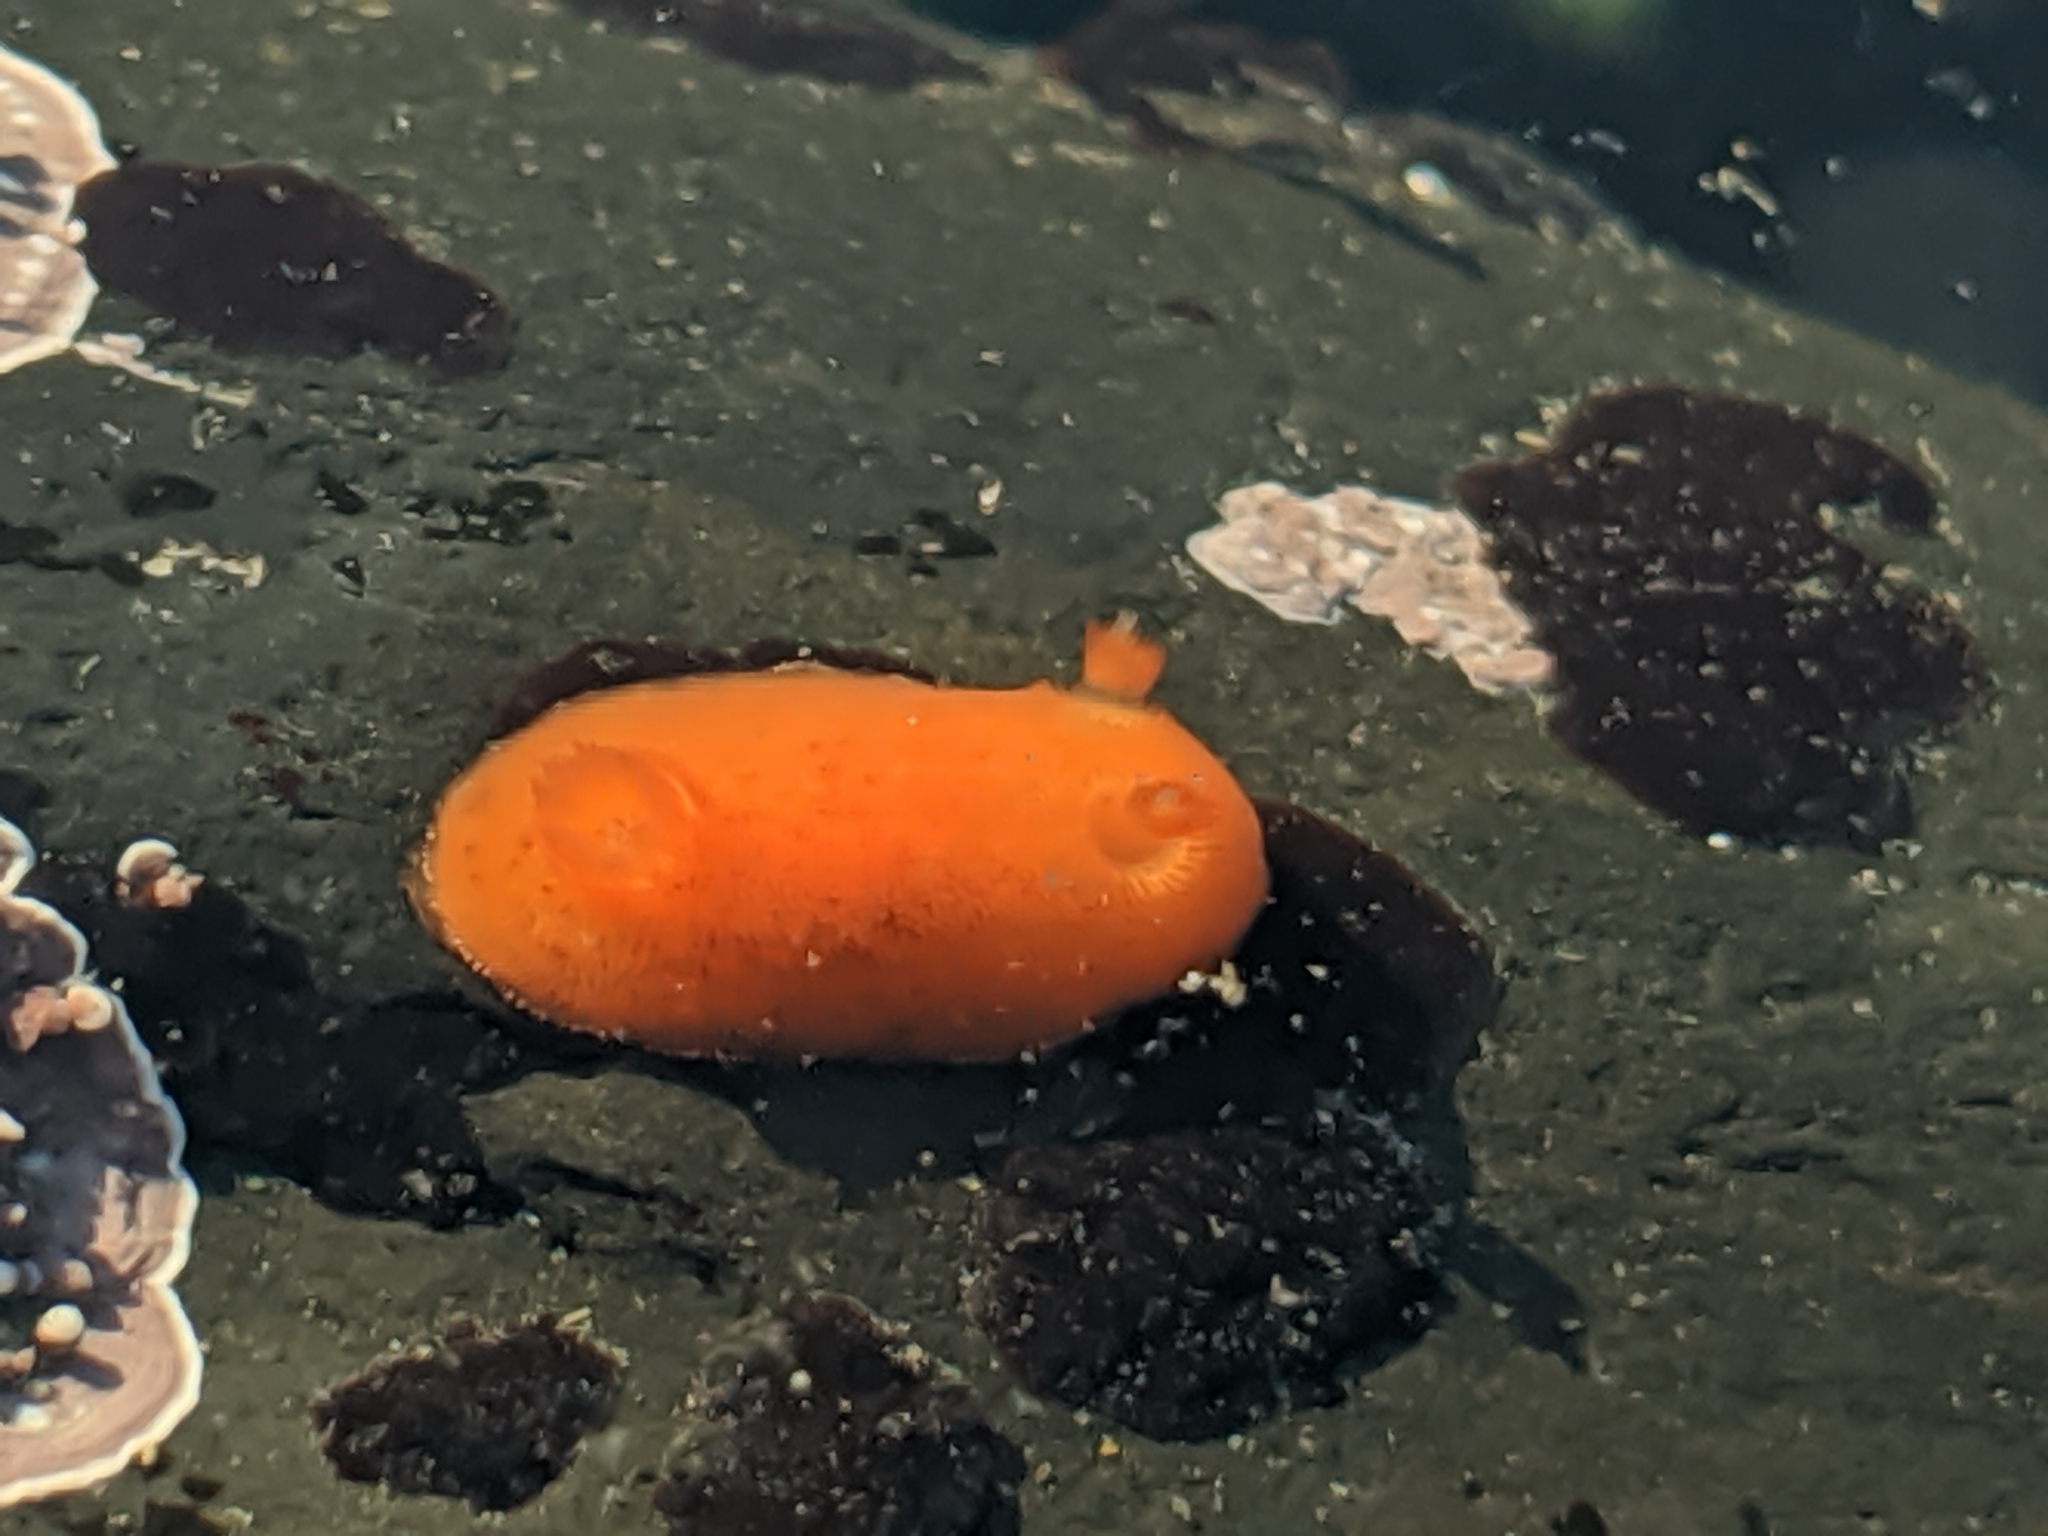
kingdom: Animalia
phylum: Mollusca
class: Gastropoda
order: Nudibranchia
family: Discodorididae
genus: Rostanga
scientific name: Rostanga pulchra
